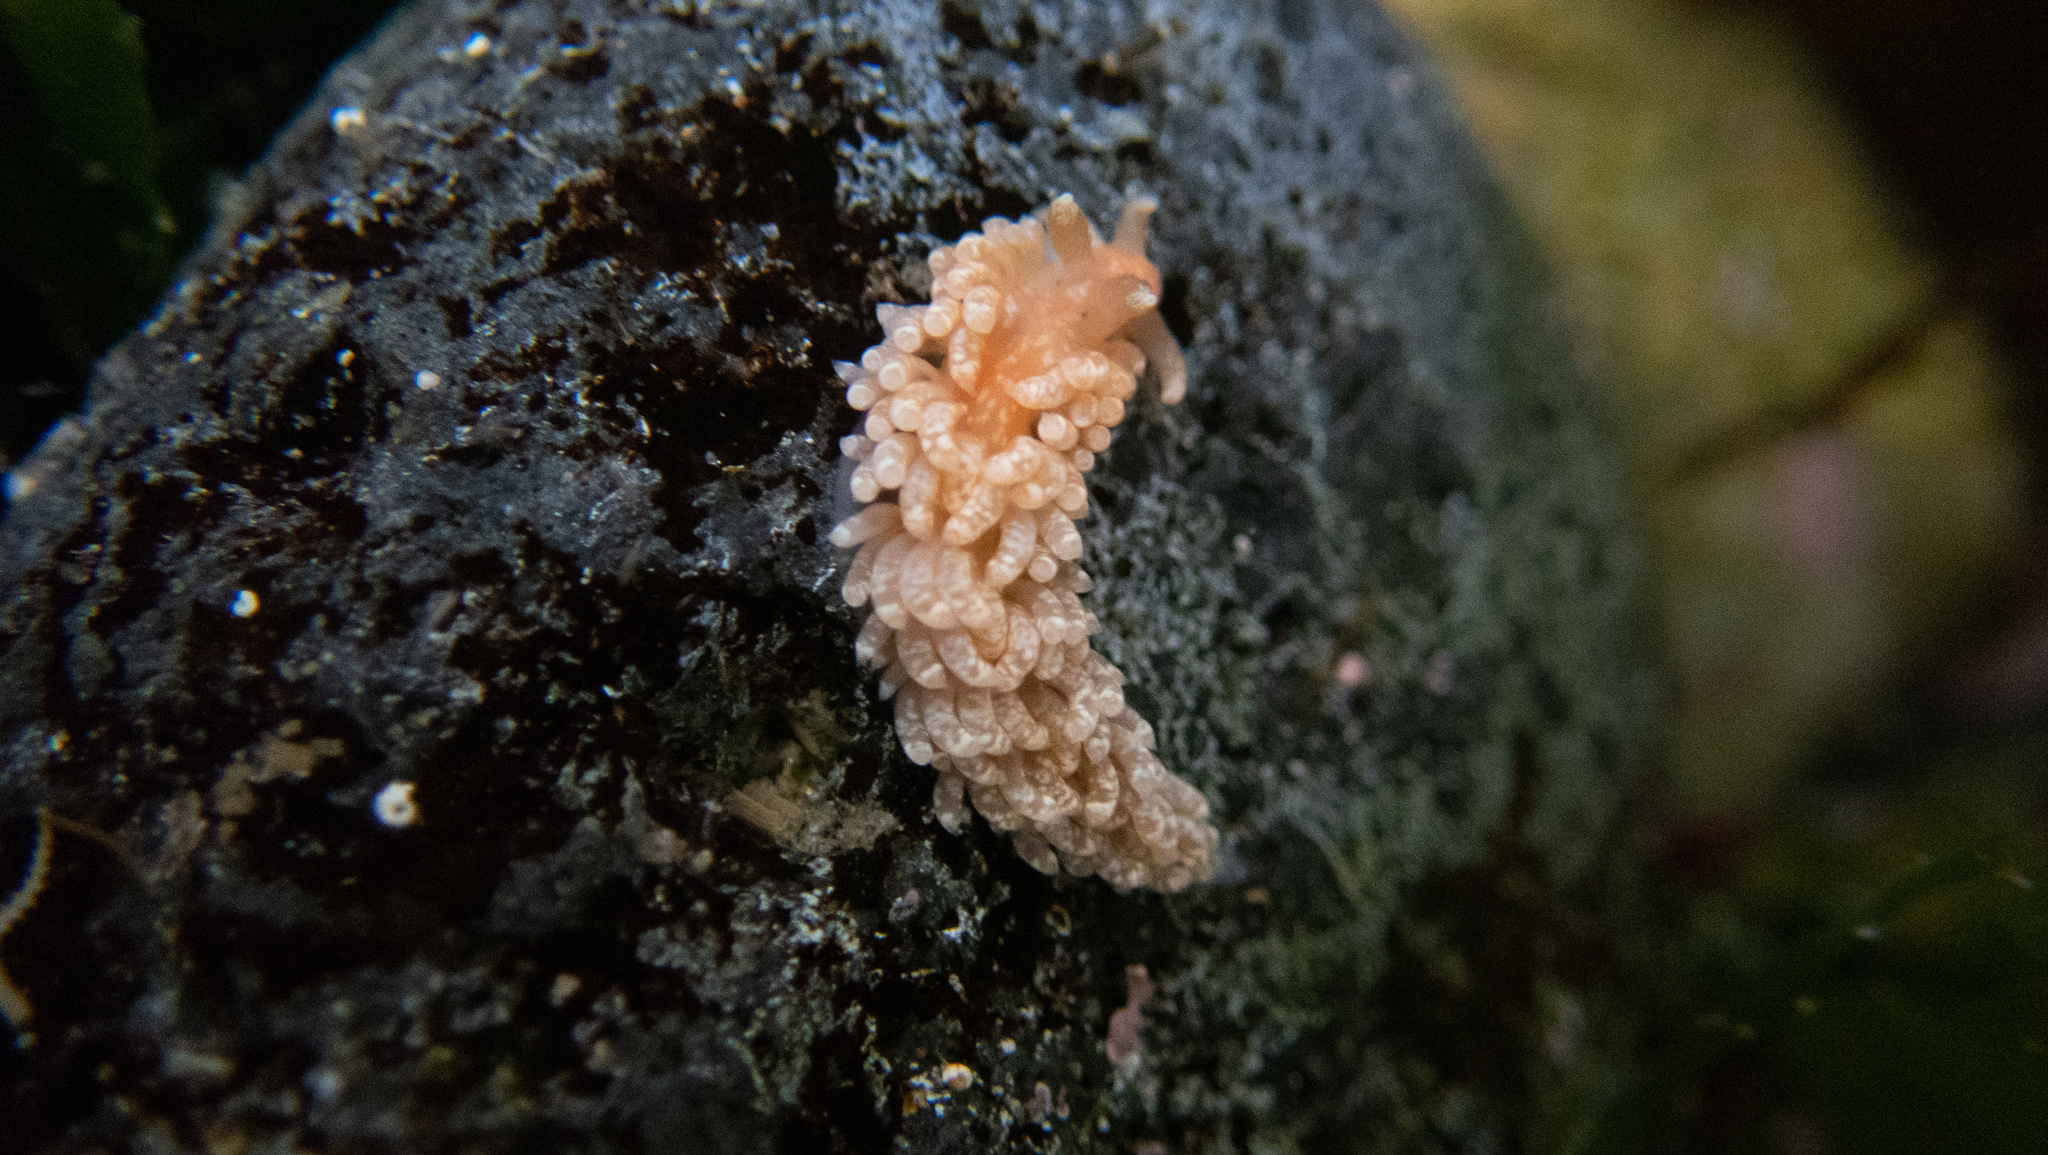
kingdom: Animalia
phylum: Mollusca
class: Gastropoda
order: Nudibranchia
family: Aeolidiidae
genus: Anteaeolidiella
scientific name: Anteaeolidiella chromosoma
